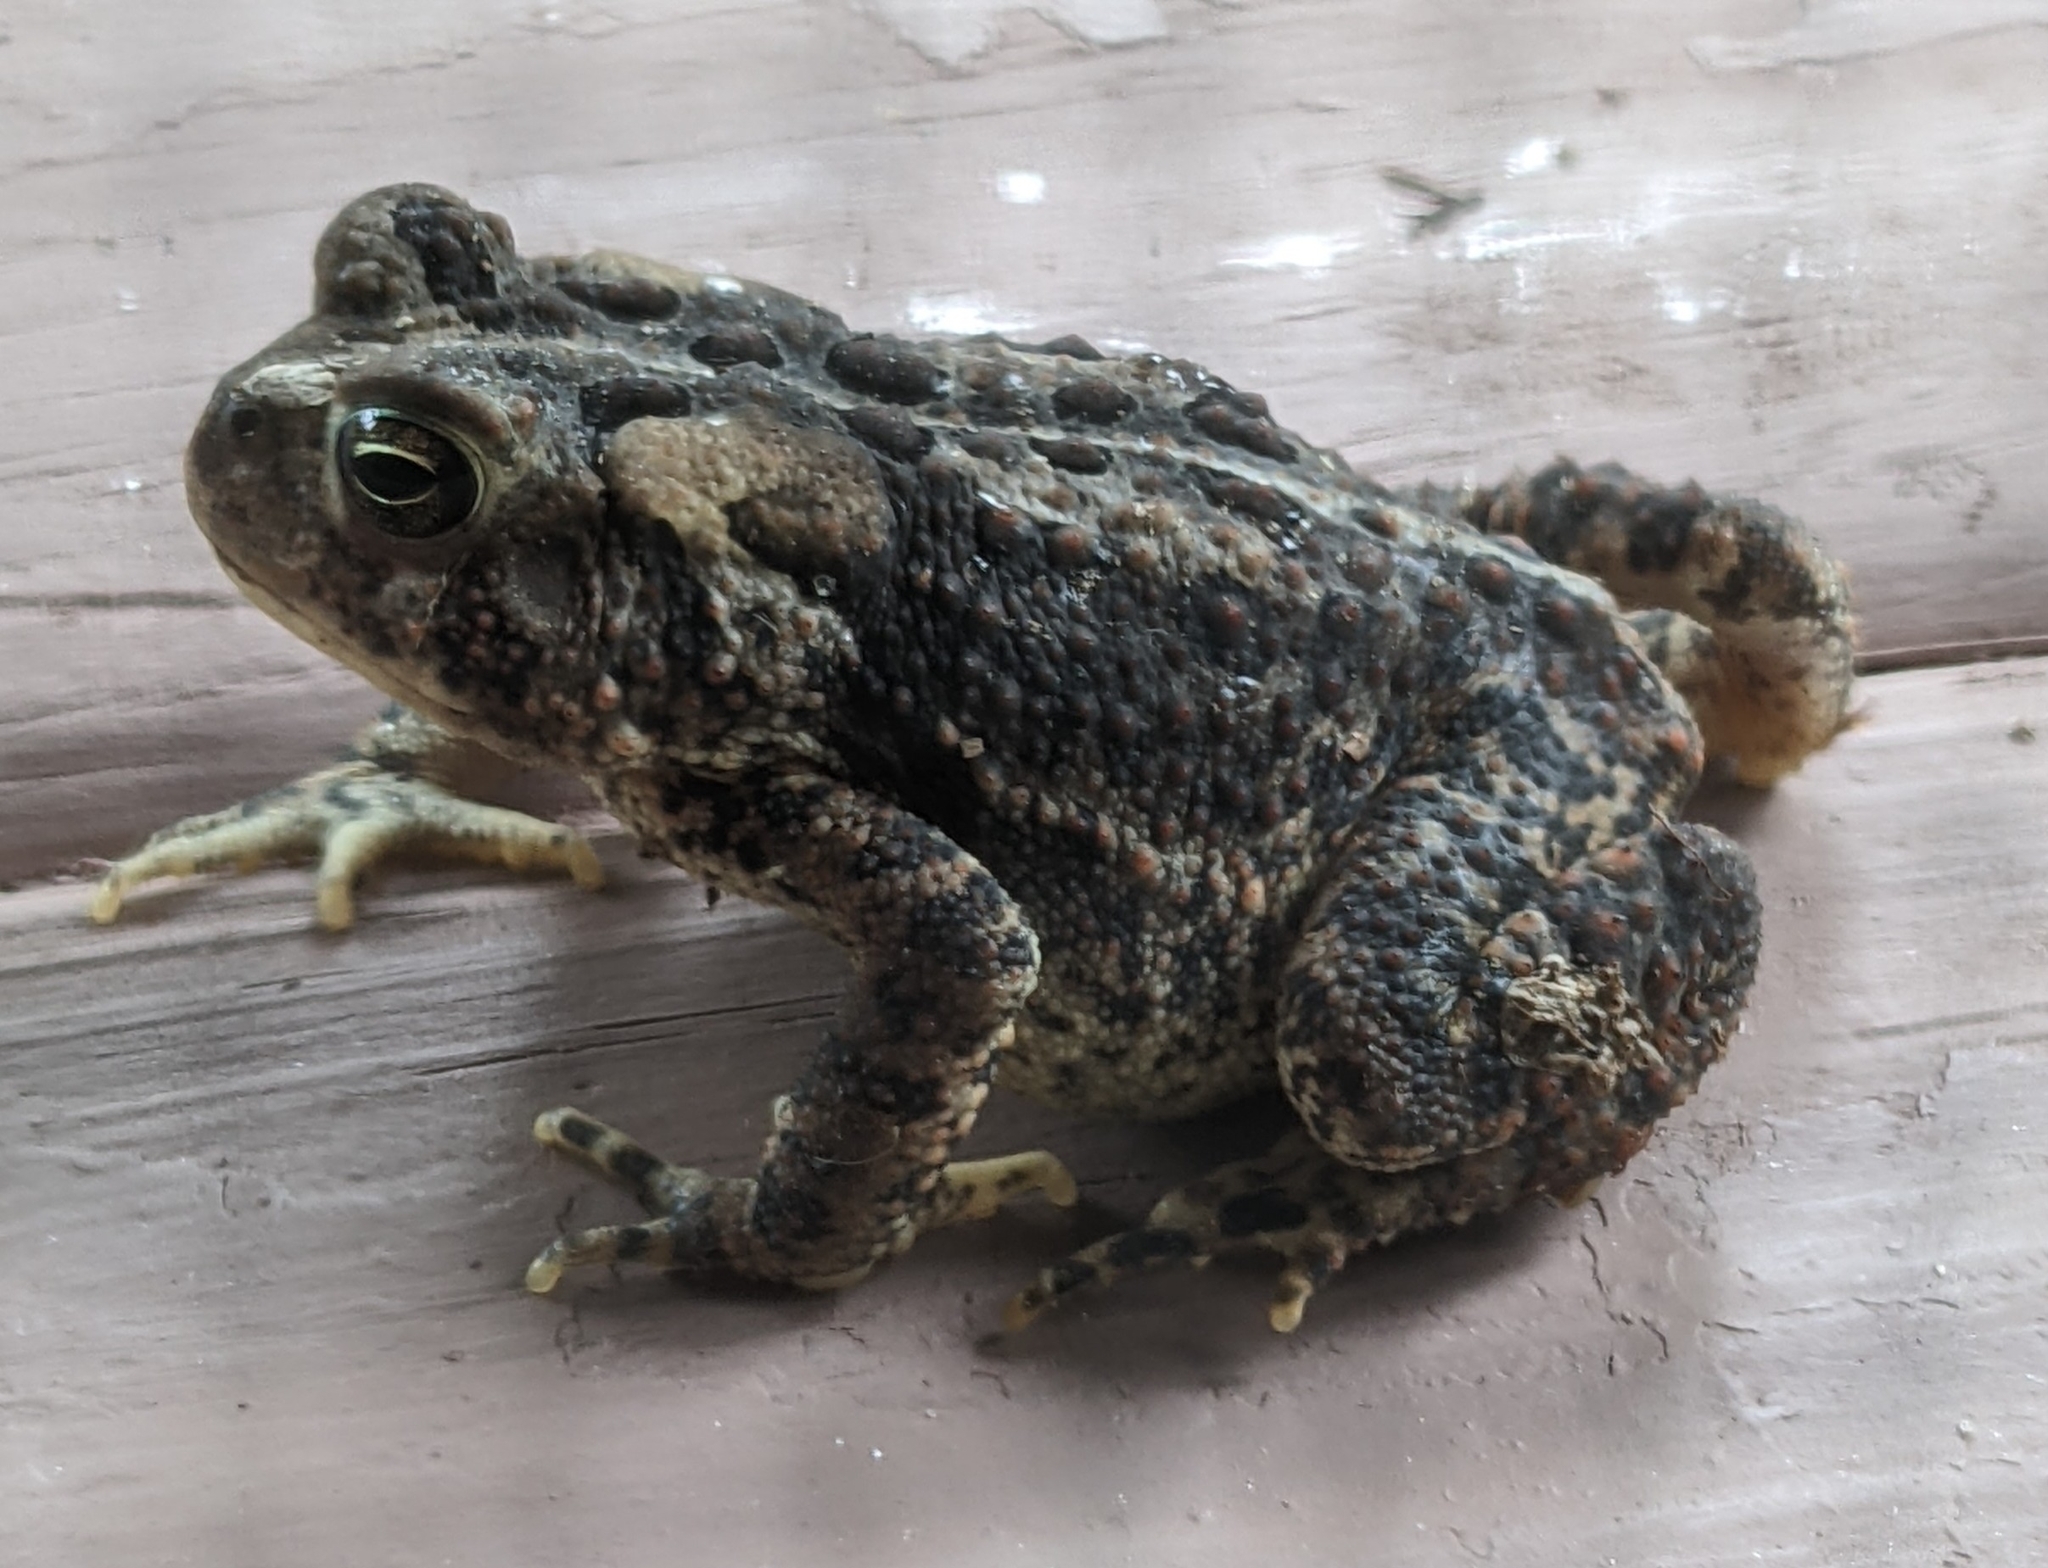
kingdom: Animalia
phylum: Chordata
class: Amphibia
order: Anura
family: Bufonidae
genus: Anaxyrus
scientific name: Anaxyrus americanus
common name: American toad
